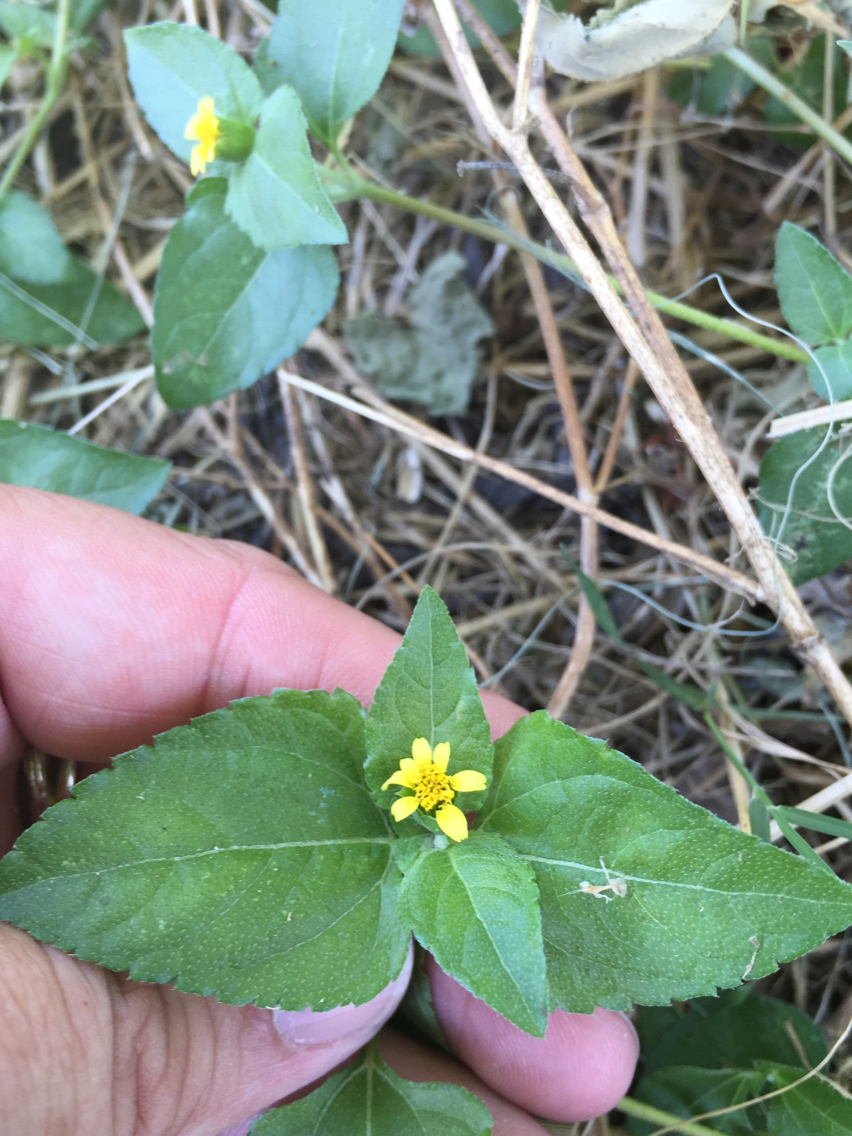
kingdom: Plantae
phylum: Tracheophyta
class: Magnoliopsida
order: Asterales
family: Asteraceae
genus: Calyptocarpus
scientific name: Calyptocarpus vialis
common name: Straggler daisy
